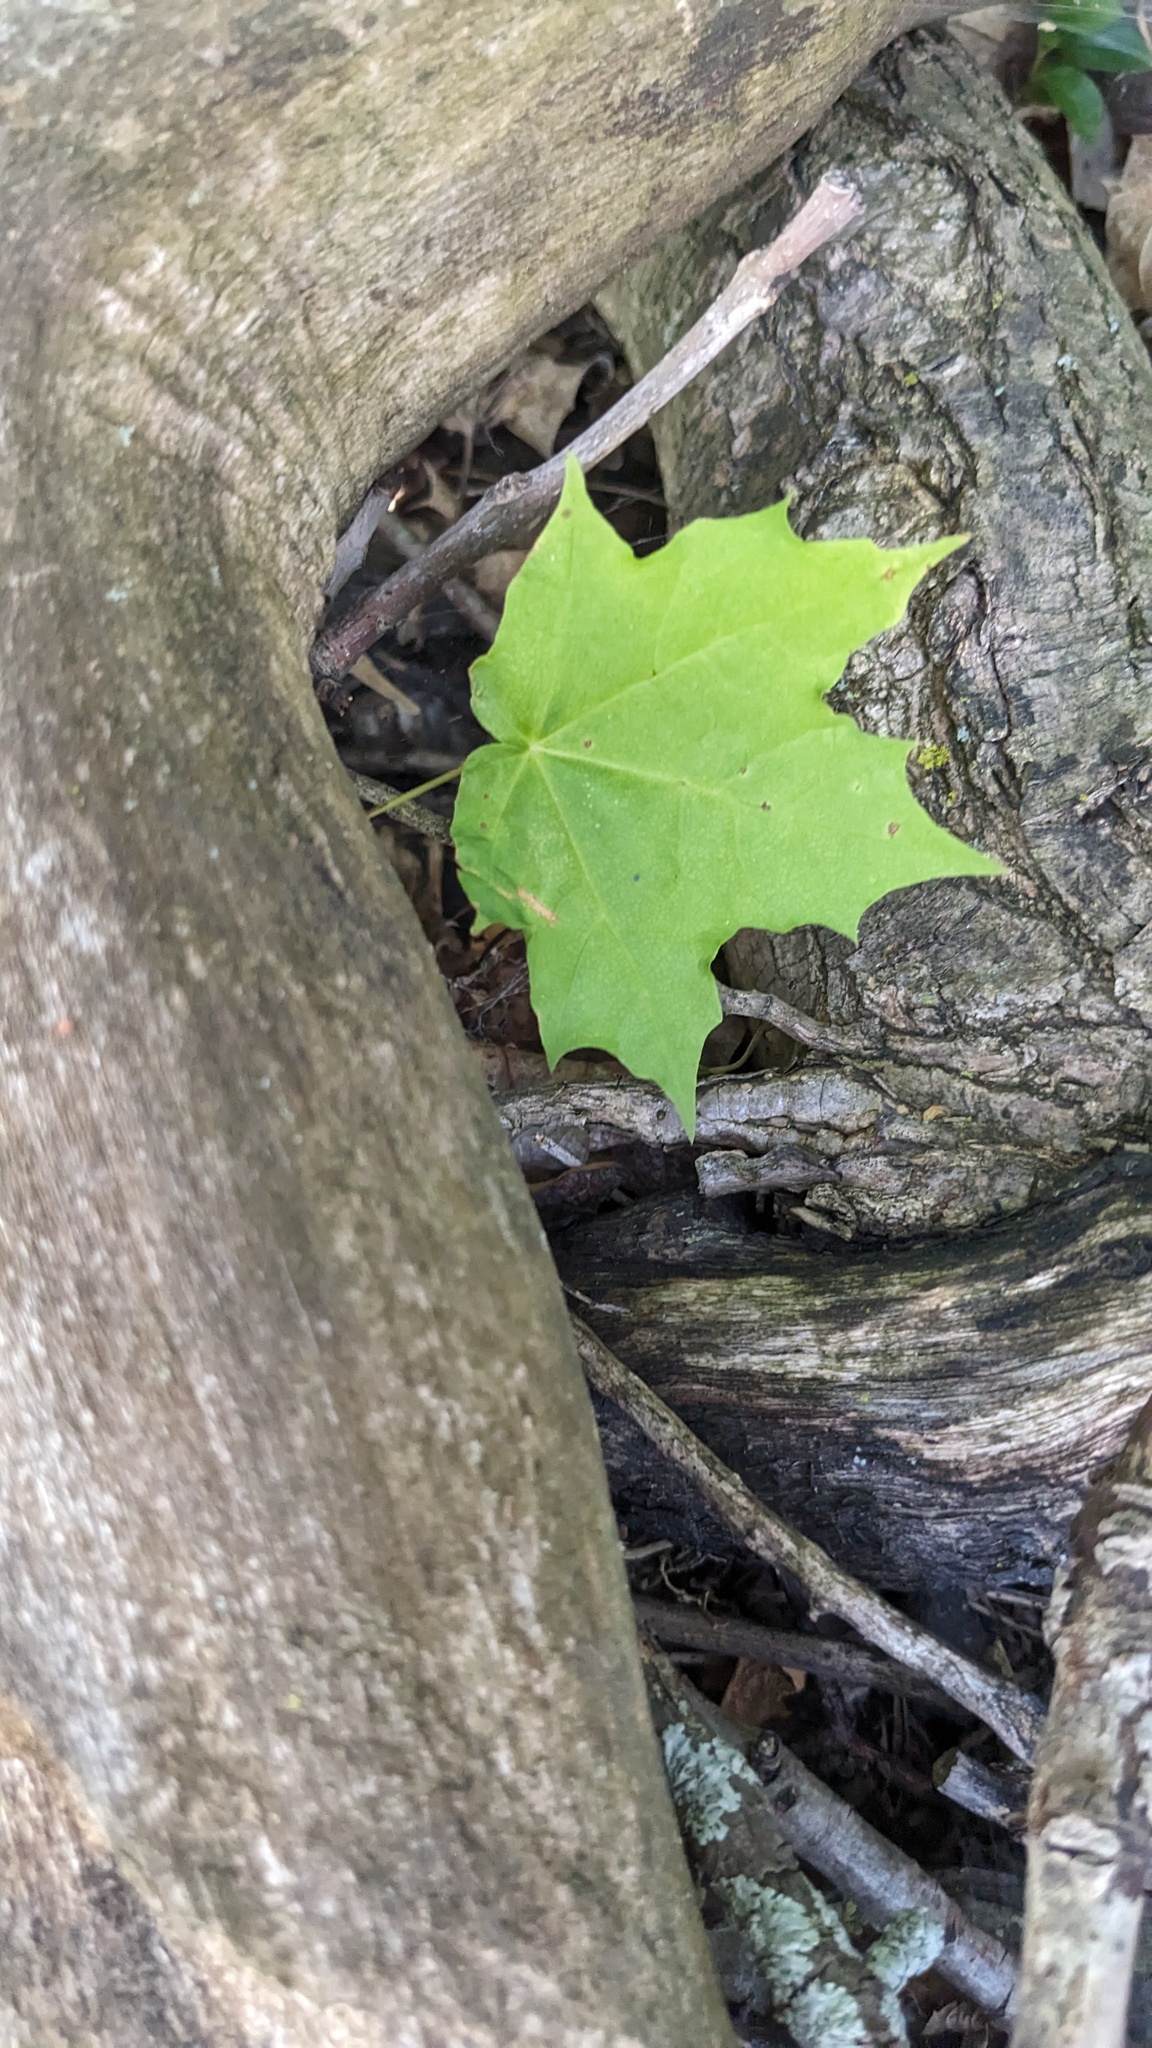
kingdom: Plantae
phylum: Tracheophyta
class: Magnoliopsida
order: Sapindales
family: Sapindaceae
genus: Acer
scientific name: Acer saccharum
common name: Sugar maple
